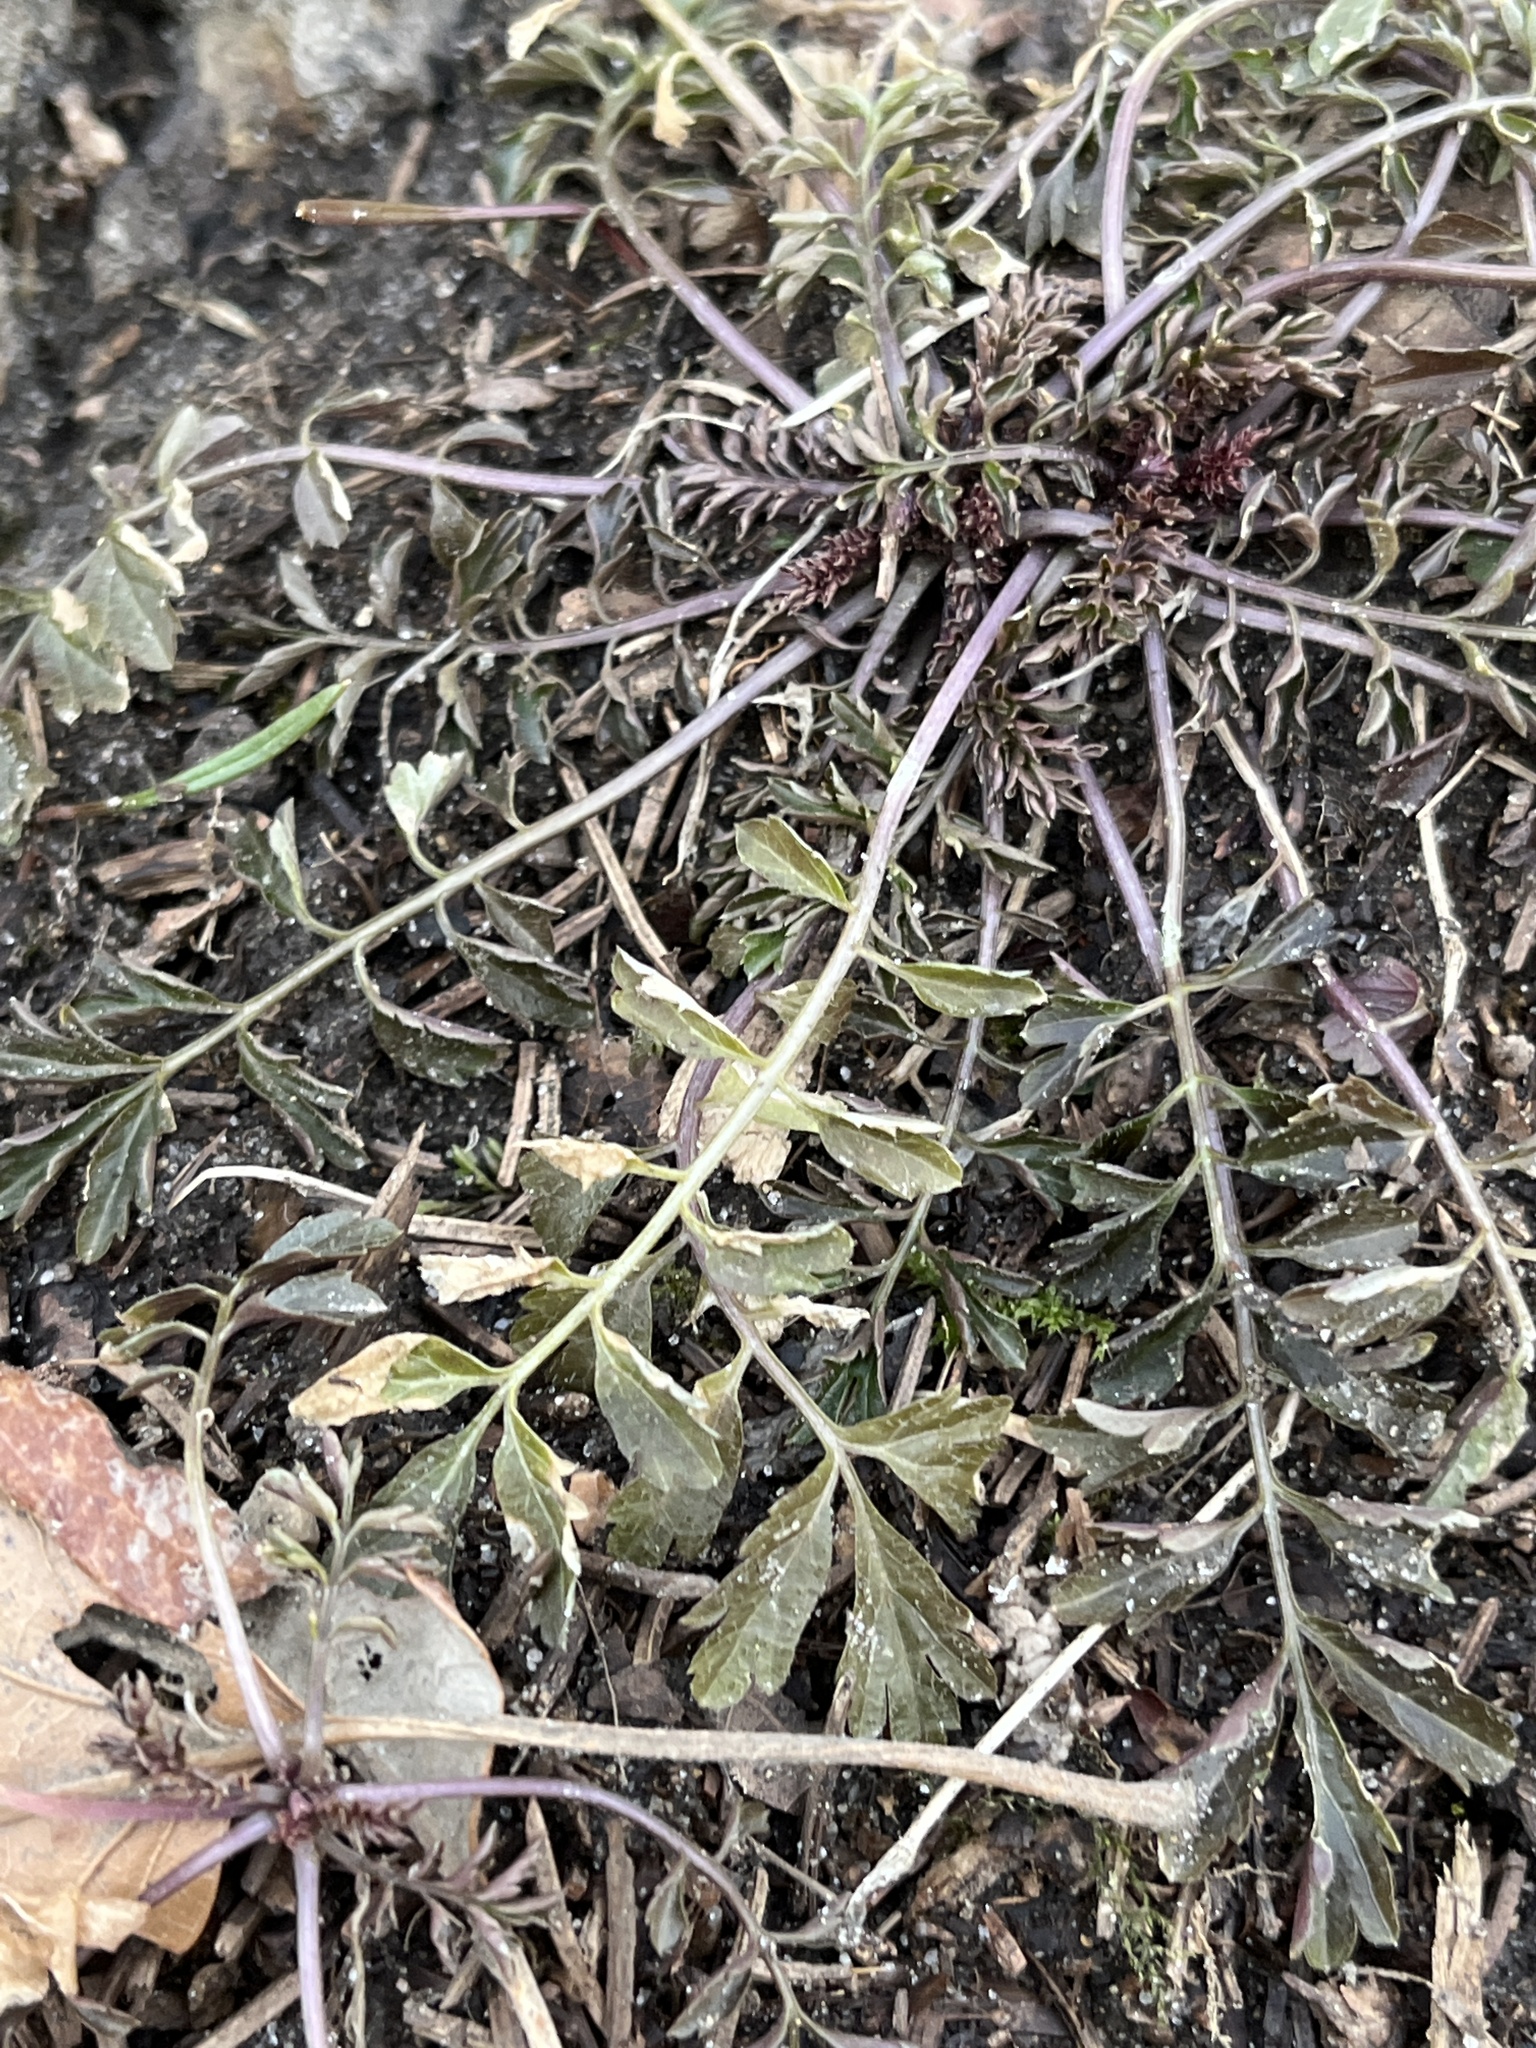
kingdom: Plantae
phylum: Tracheophyta
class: Magnoliopsida
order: Brassicales
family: Brassicaceae
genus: Cardamine
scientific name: Cardamine impatiens
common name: Narrow-leaved bitter-cress
